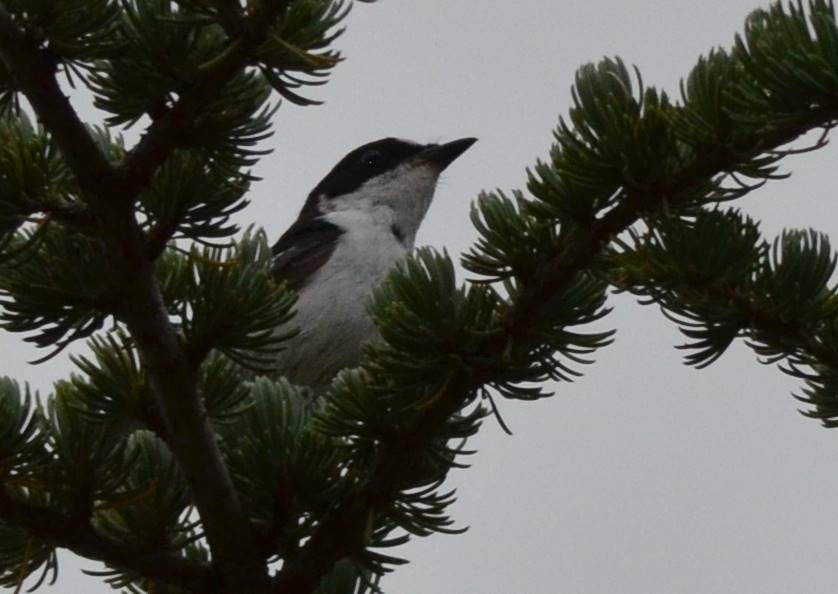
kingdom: Animalia
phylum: Chordata
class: Aves
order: Passeriformes
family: Muscicapidae
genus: Ficedula
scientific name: Ficedula speculigera
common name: Atlas pied flycatcher
